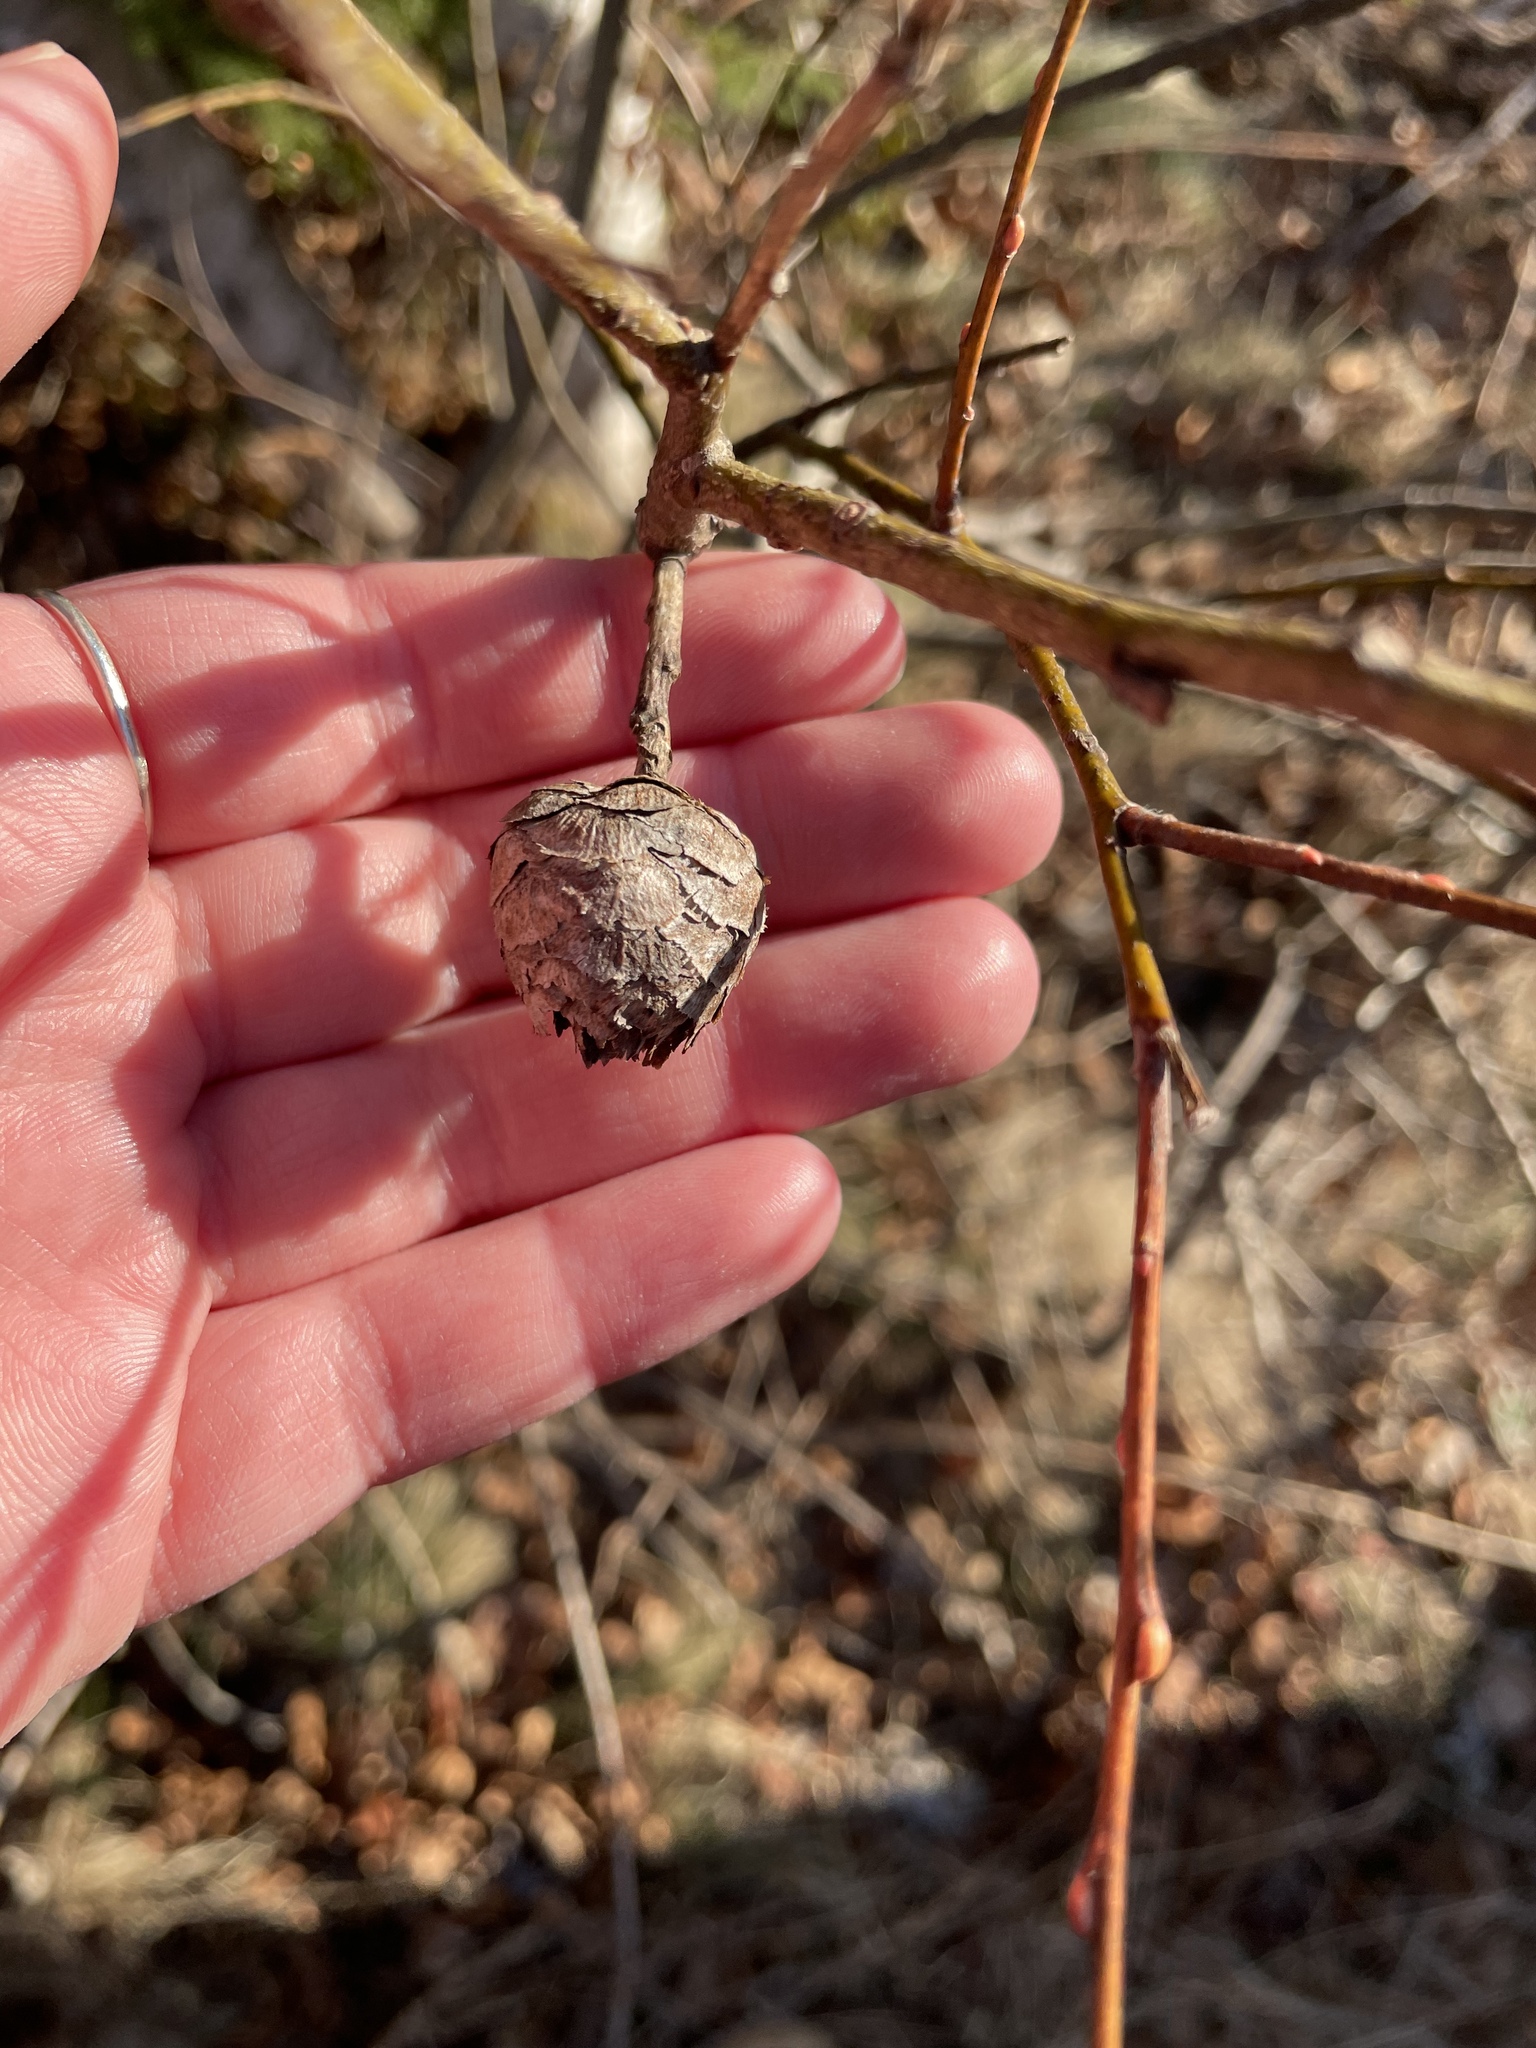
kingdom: Animalia
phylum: Arthropoda
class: Insecta
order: Diptera
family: Cecidomyiidae
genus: Rabdophaga
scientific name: Rabdophaga strobiloides
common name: Willow pinecone gall midge
